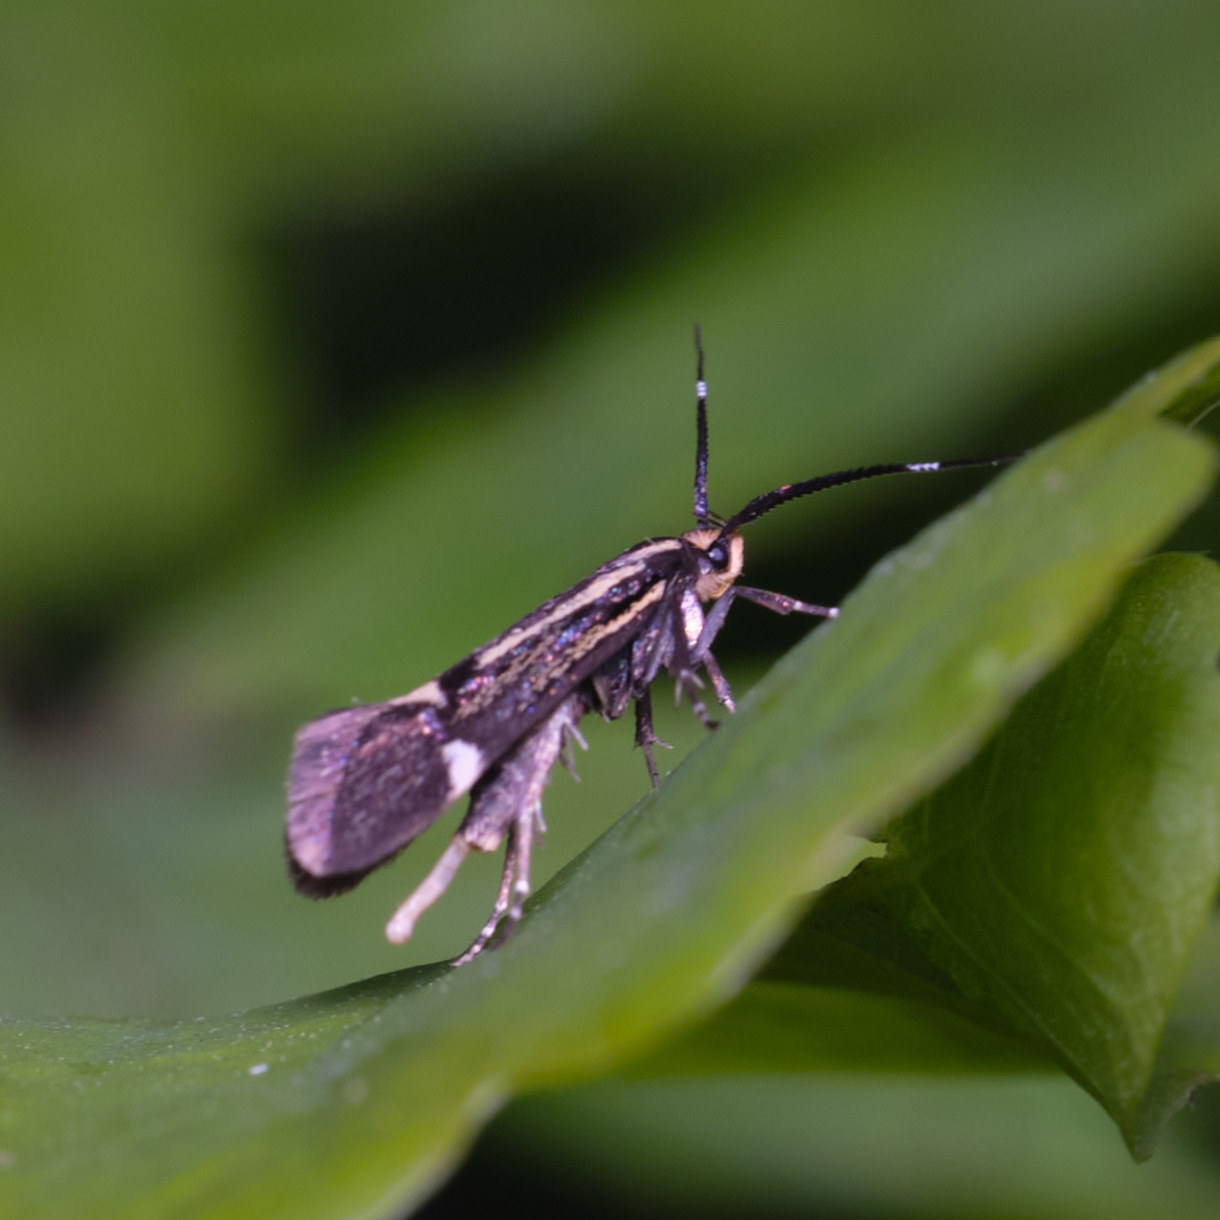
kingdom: Animalia
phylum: Arthropoda
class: Insecta
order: Lepidoptera
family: Oecophoridae
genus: Dafa
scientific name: Dafa Esperia sulphurella
